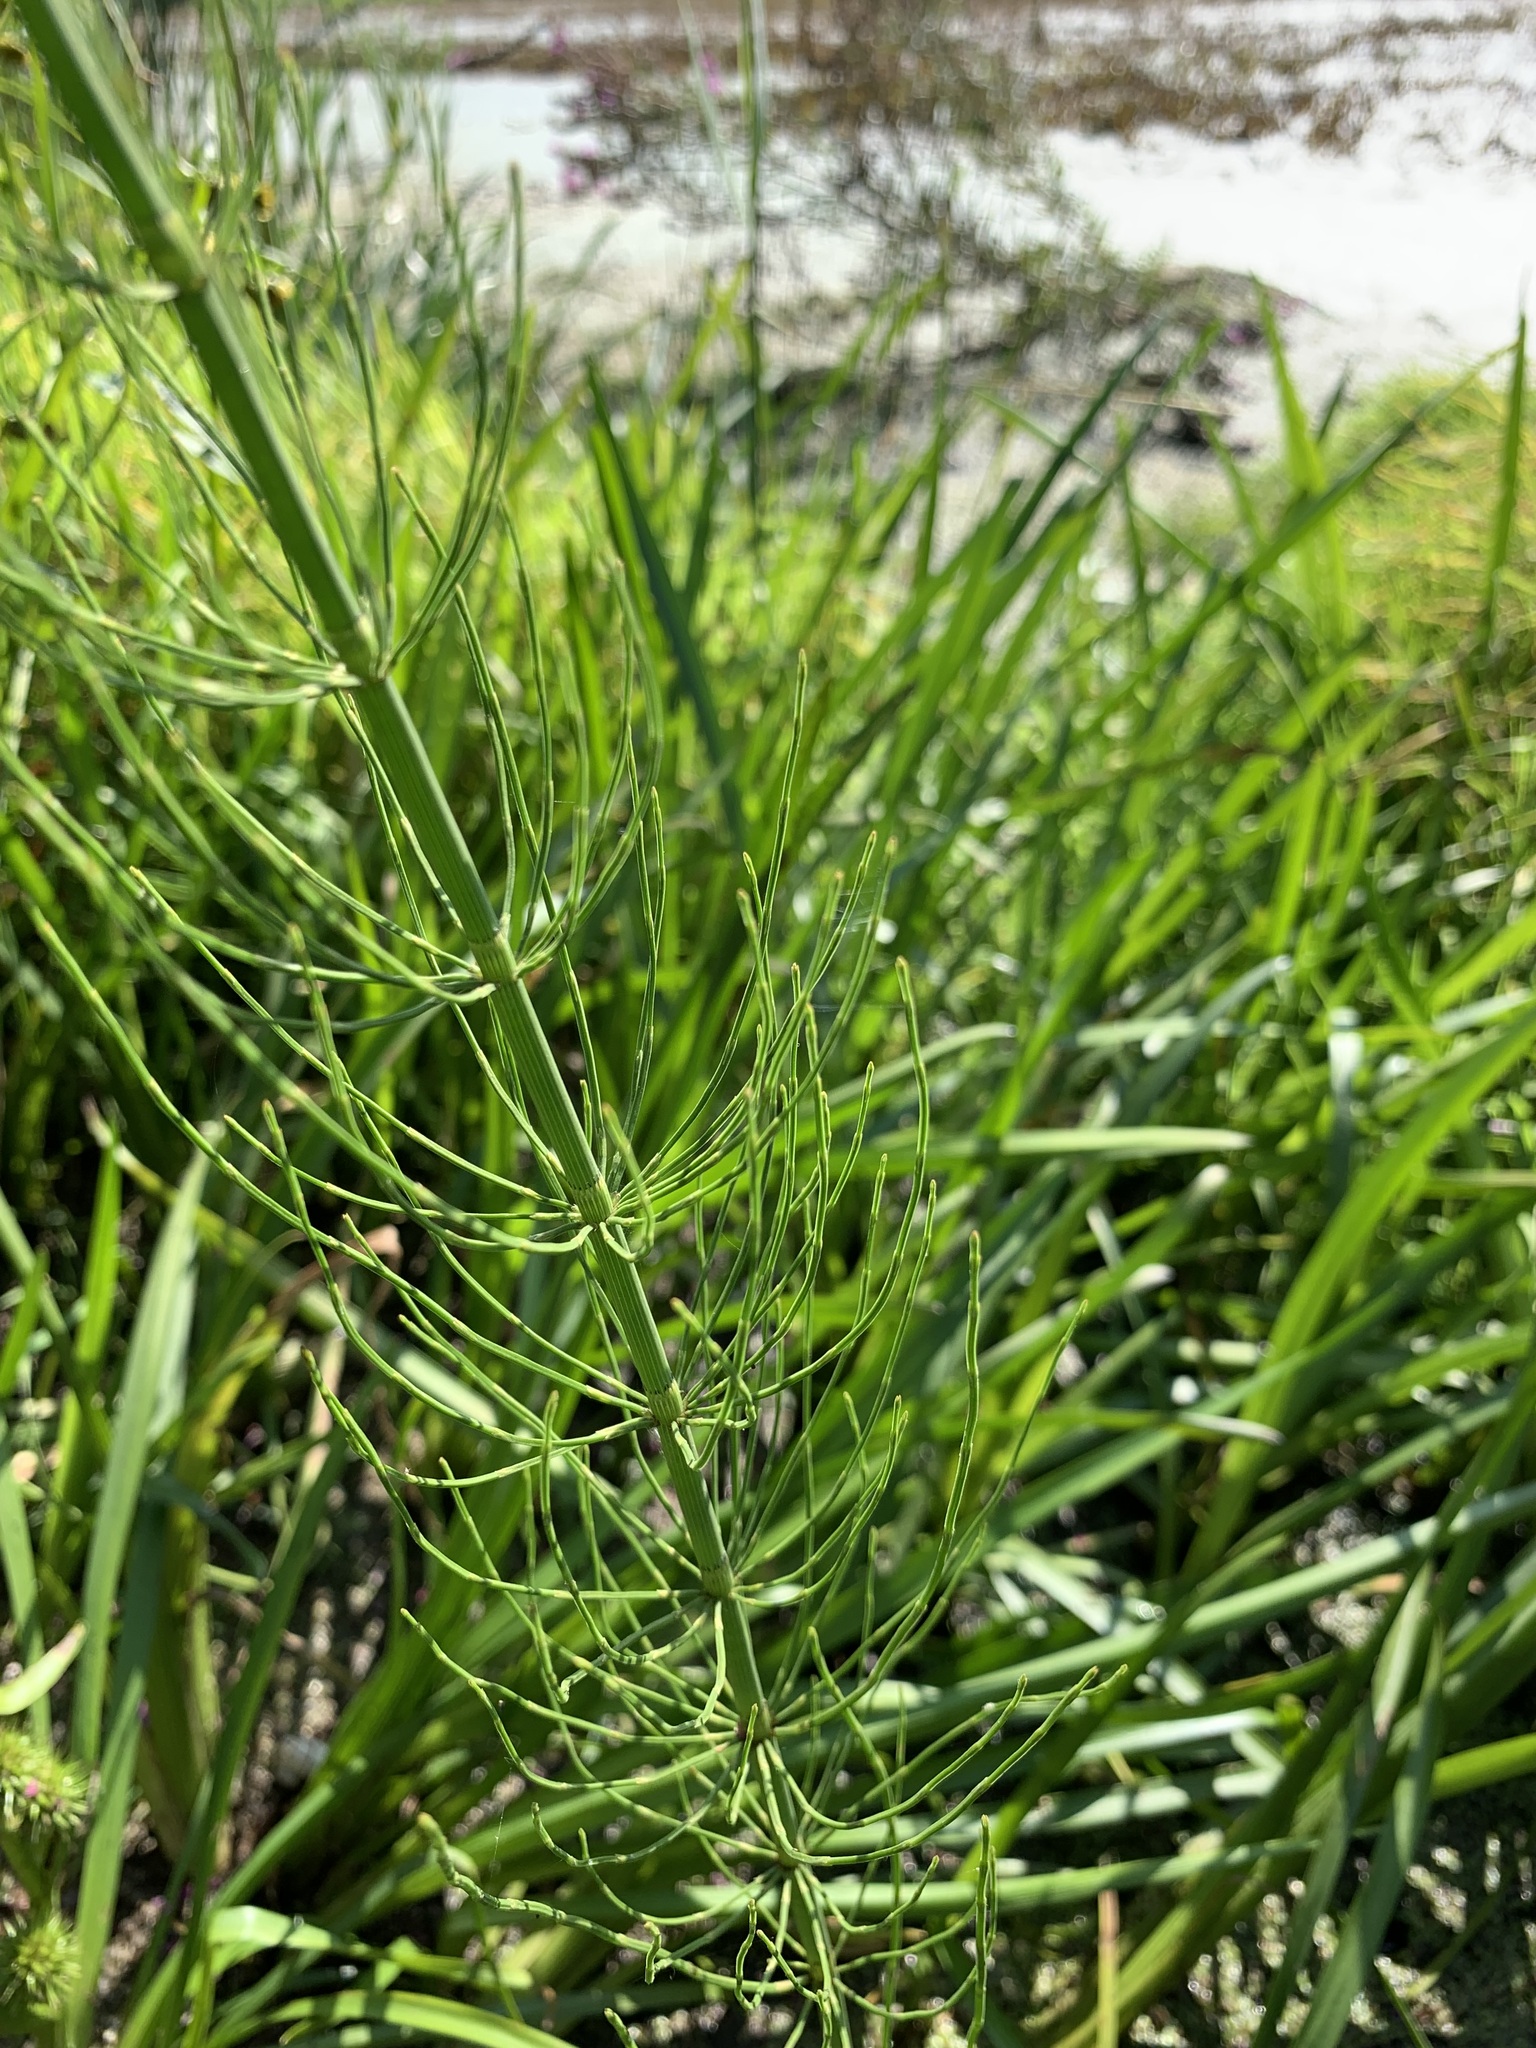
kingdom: Plantae
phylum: Tracheophyta
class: Polypodiopsida
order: Equisetales
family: Equisetaceae
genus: Equisetum
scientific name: Equisetum fluviatile
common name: Water horsetail
